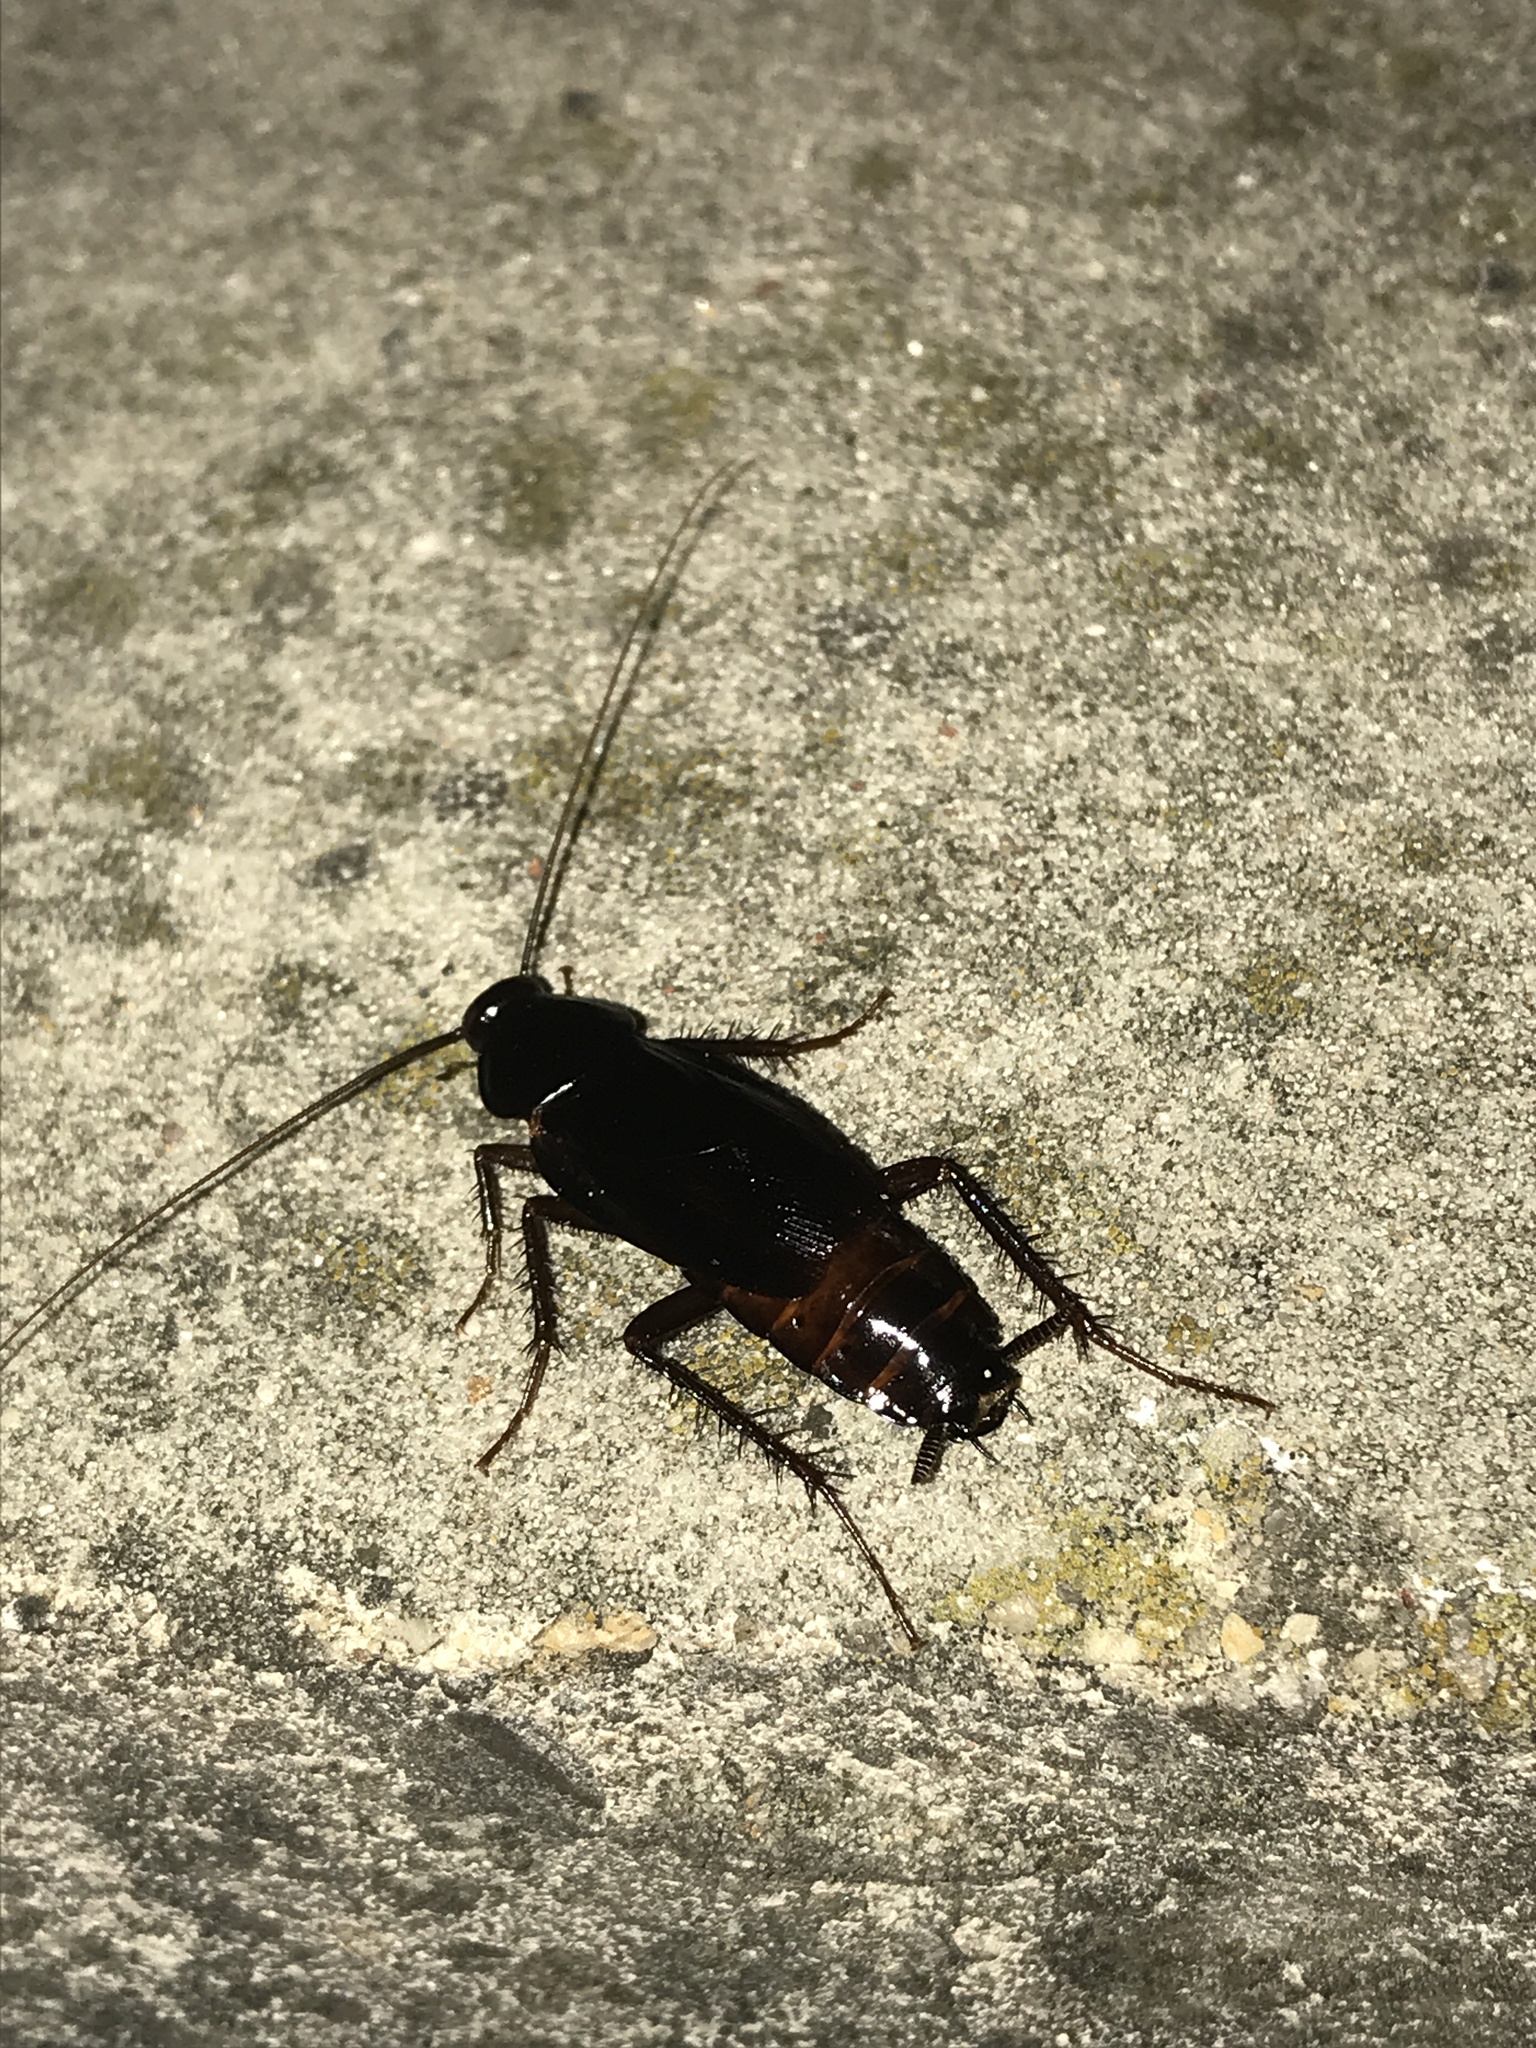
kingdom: Animalia
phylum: Arthropoda
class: Insecta
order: Blattodea
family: Blattidae
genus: Blatta
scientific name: Blatta orientalis
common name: Oriental cockroach
